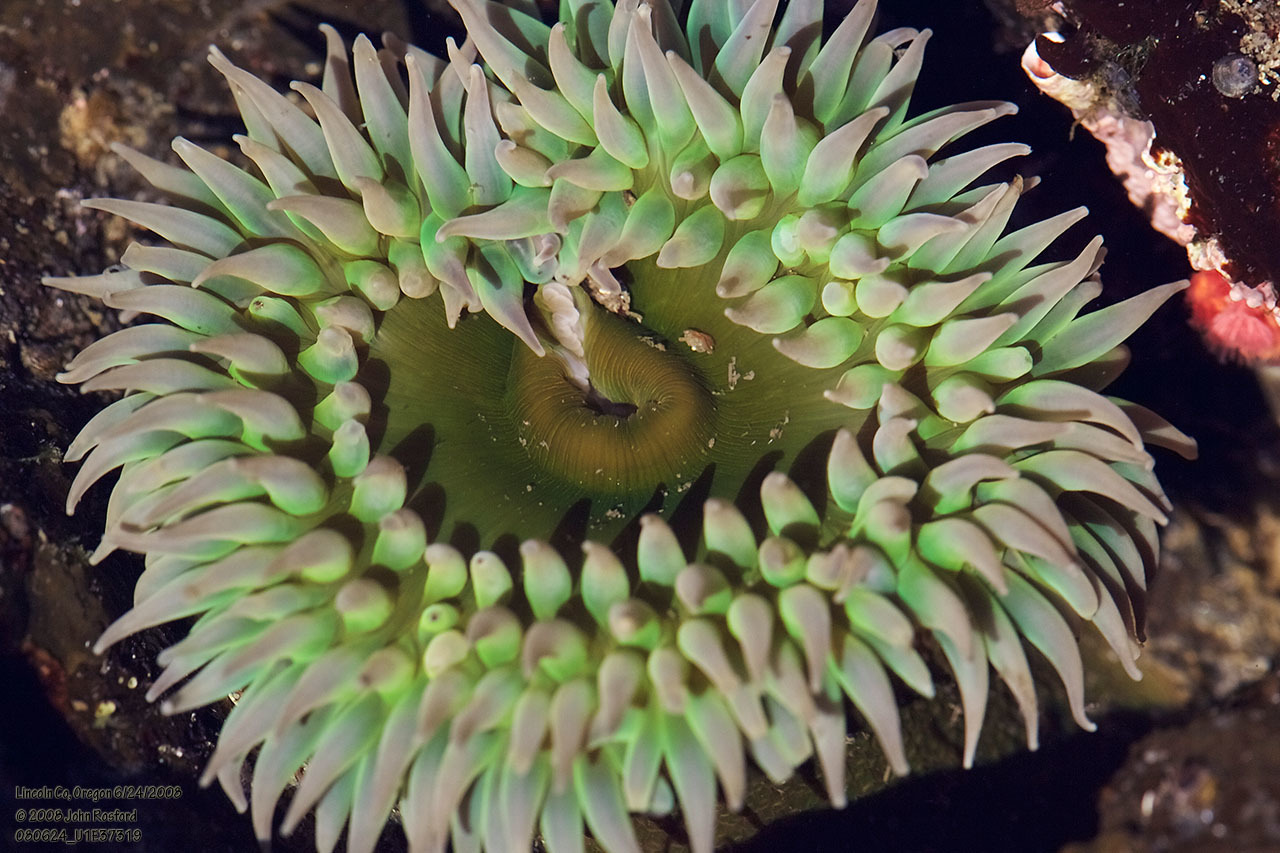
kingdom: Animalia
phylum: Cnidaria
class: Anthozoa
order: Actiniaria
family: Actiniidae
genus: Anthopleura
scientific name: Anthopleura xanthogrammica
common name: Giant green anemone
